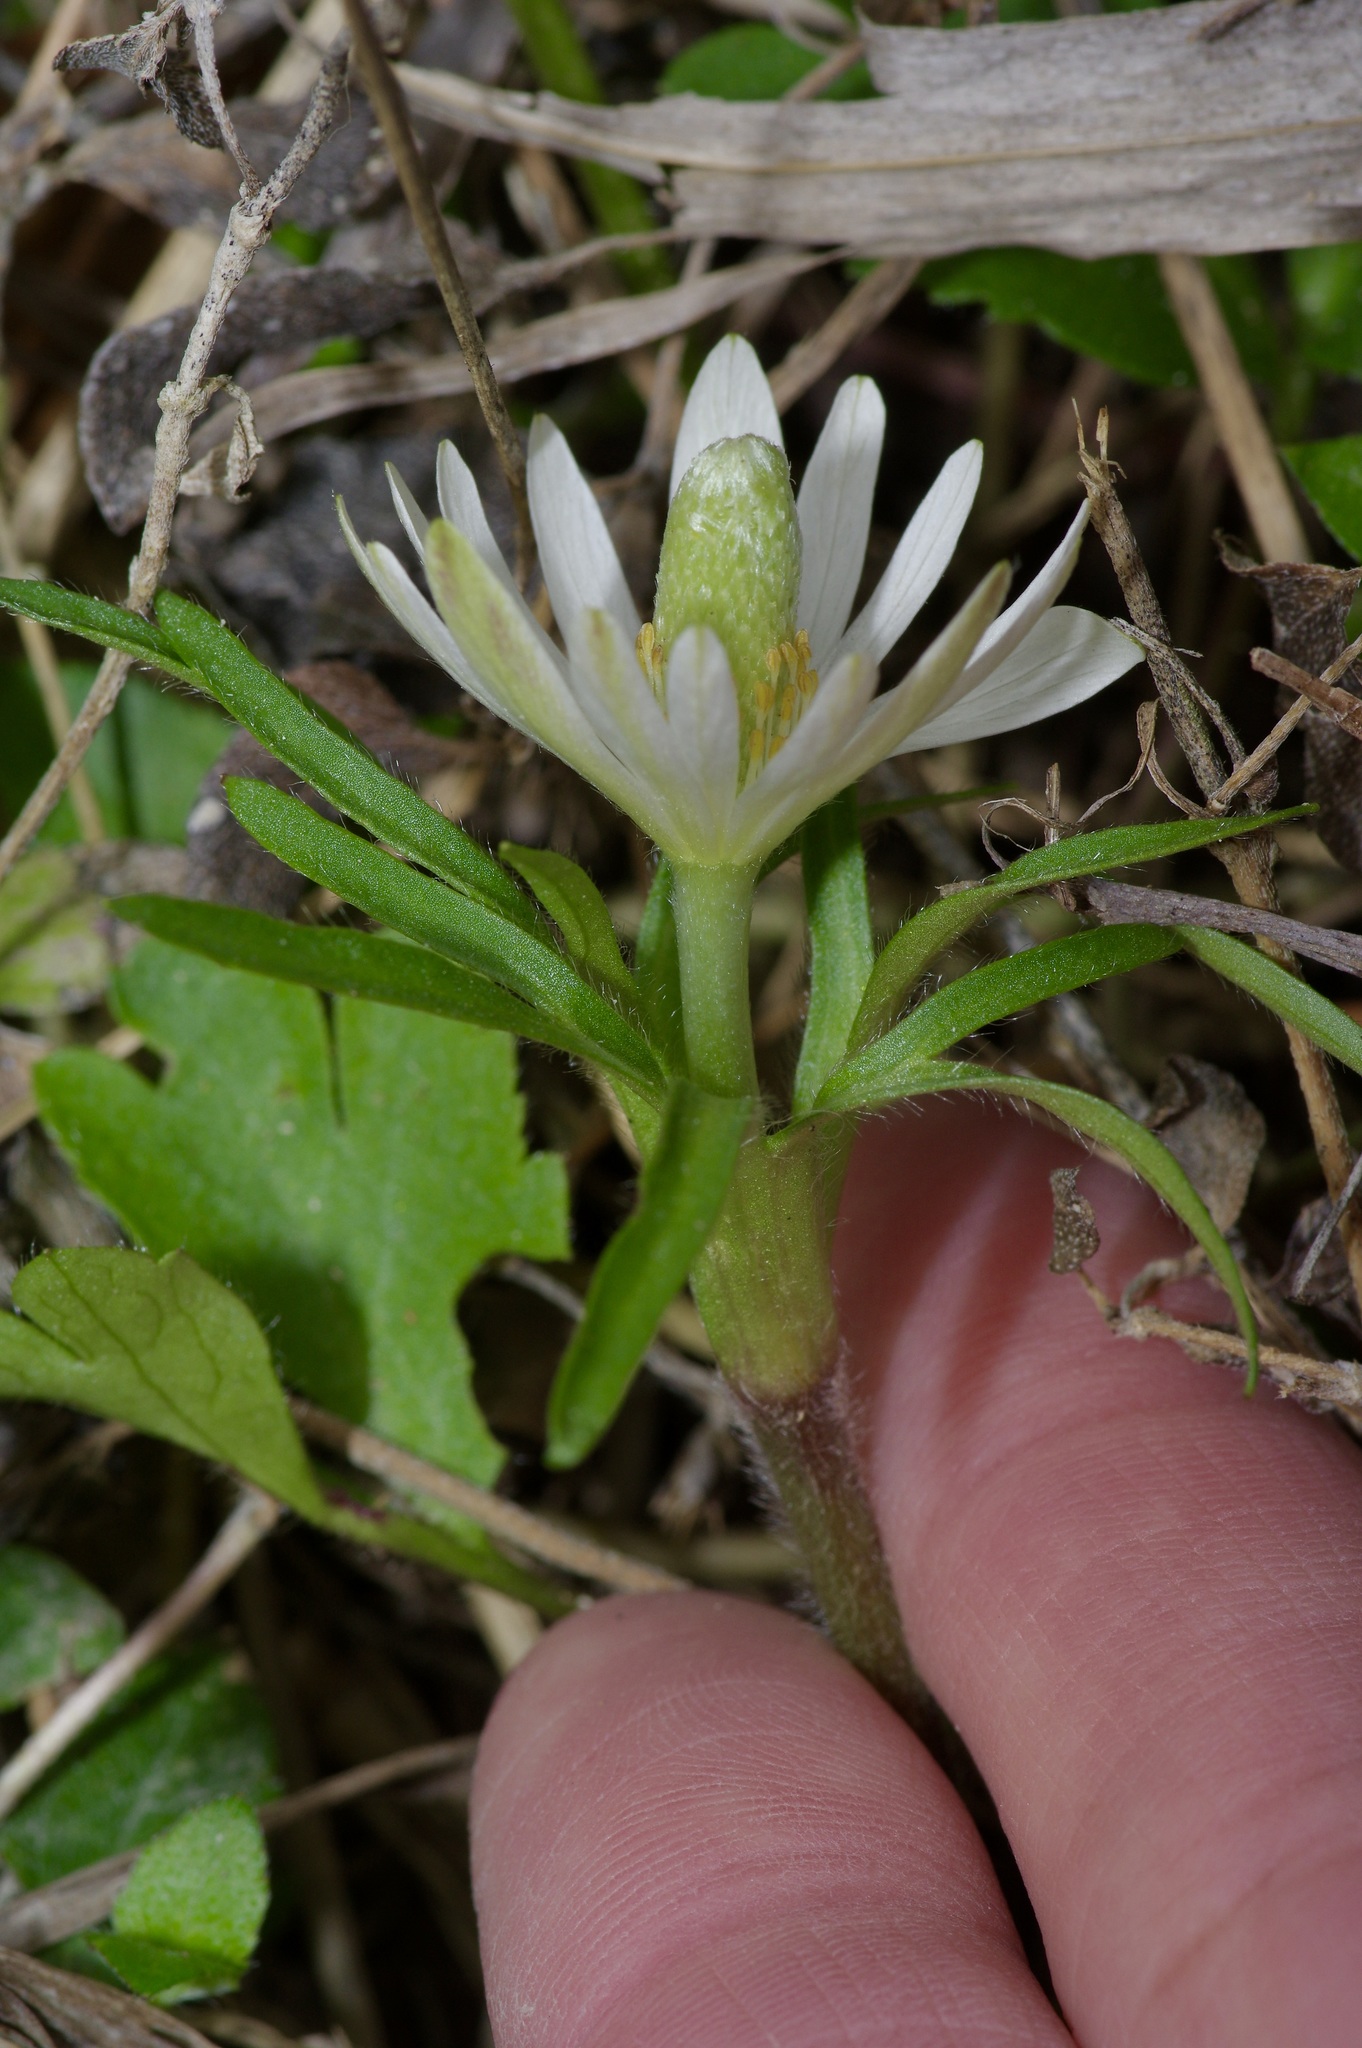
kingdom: Plantae
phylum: Tracheophyta
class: Magnoliopsida
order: Ranunculales
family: Ranunculaceae
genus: Anemone
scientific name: Anemone berlandieri
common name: Ten-petal anemone
